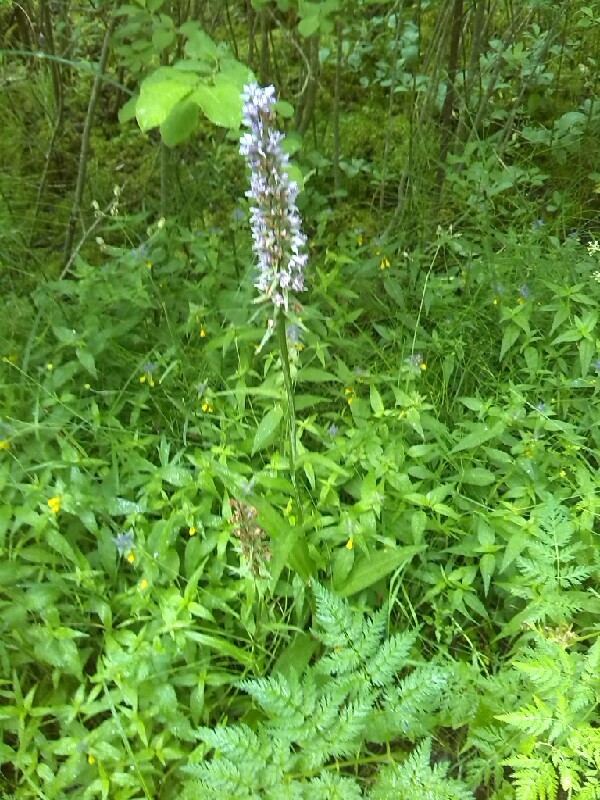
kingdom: Plantae
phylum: Tracheophyta
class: Liliopsida
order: Asparagales
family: Orchidaceae
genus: Dactylorhiza
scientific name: Dactylorhiza maculata
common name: Heath spotted-orchid
